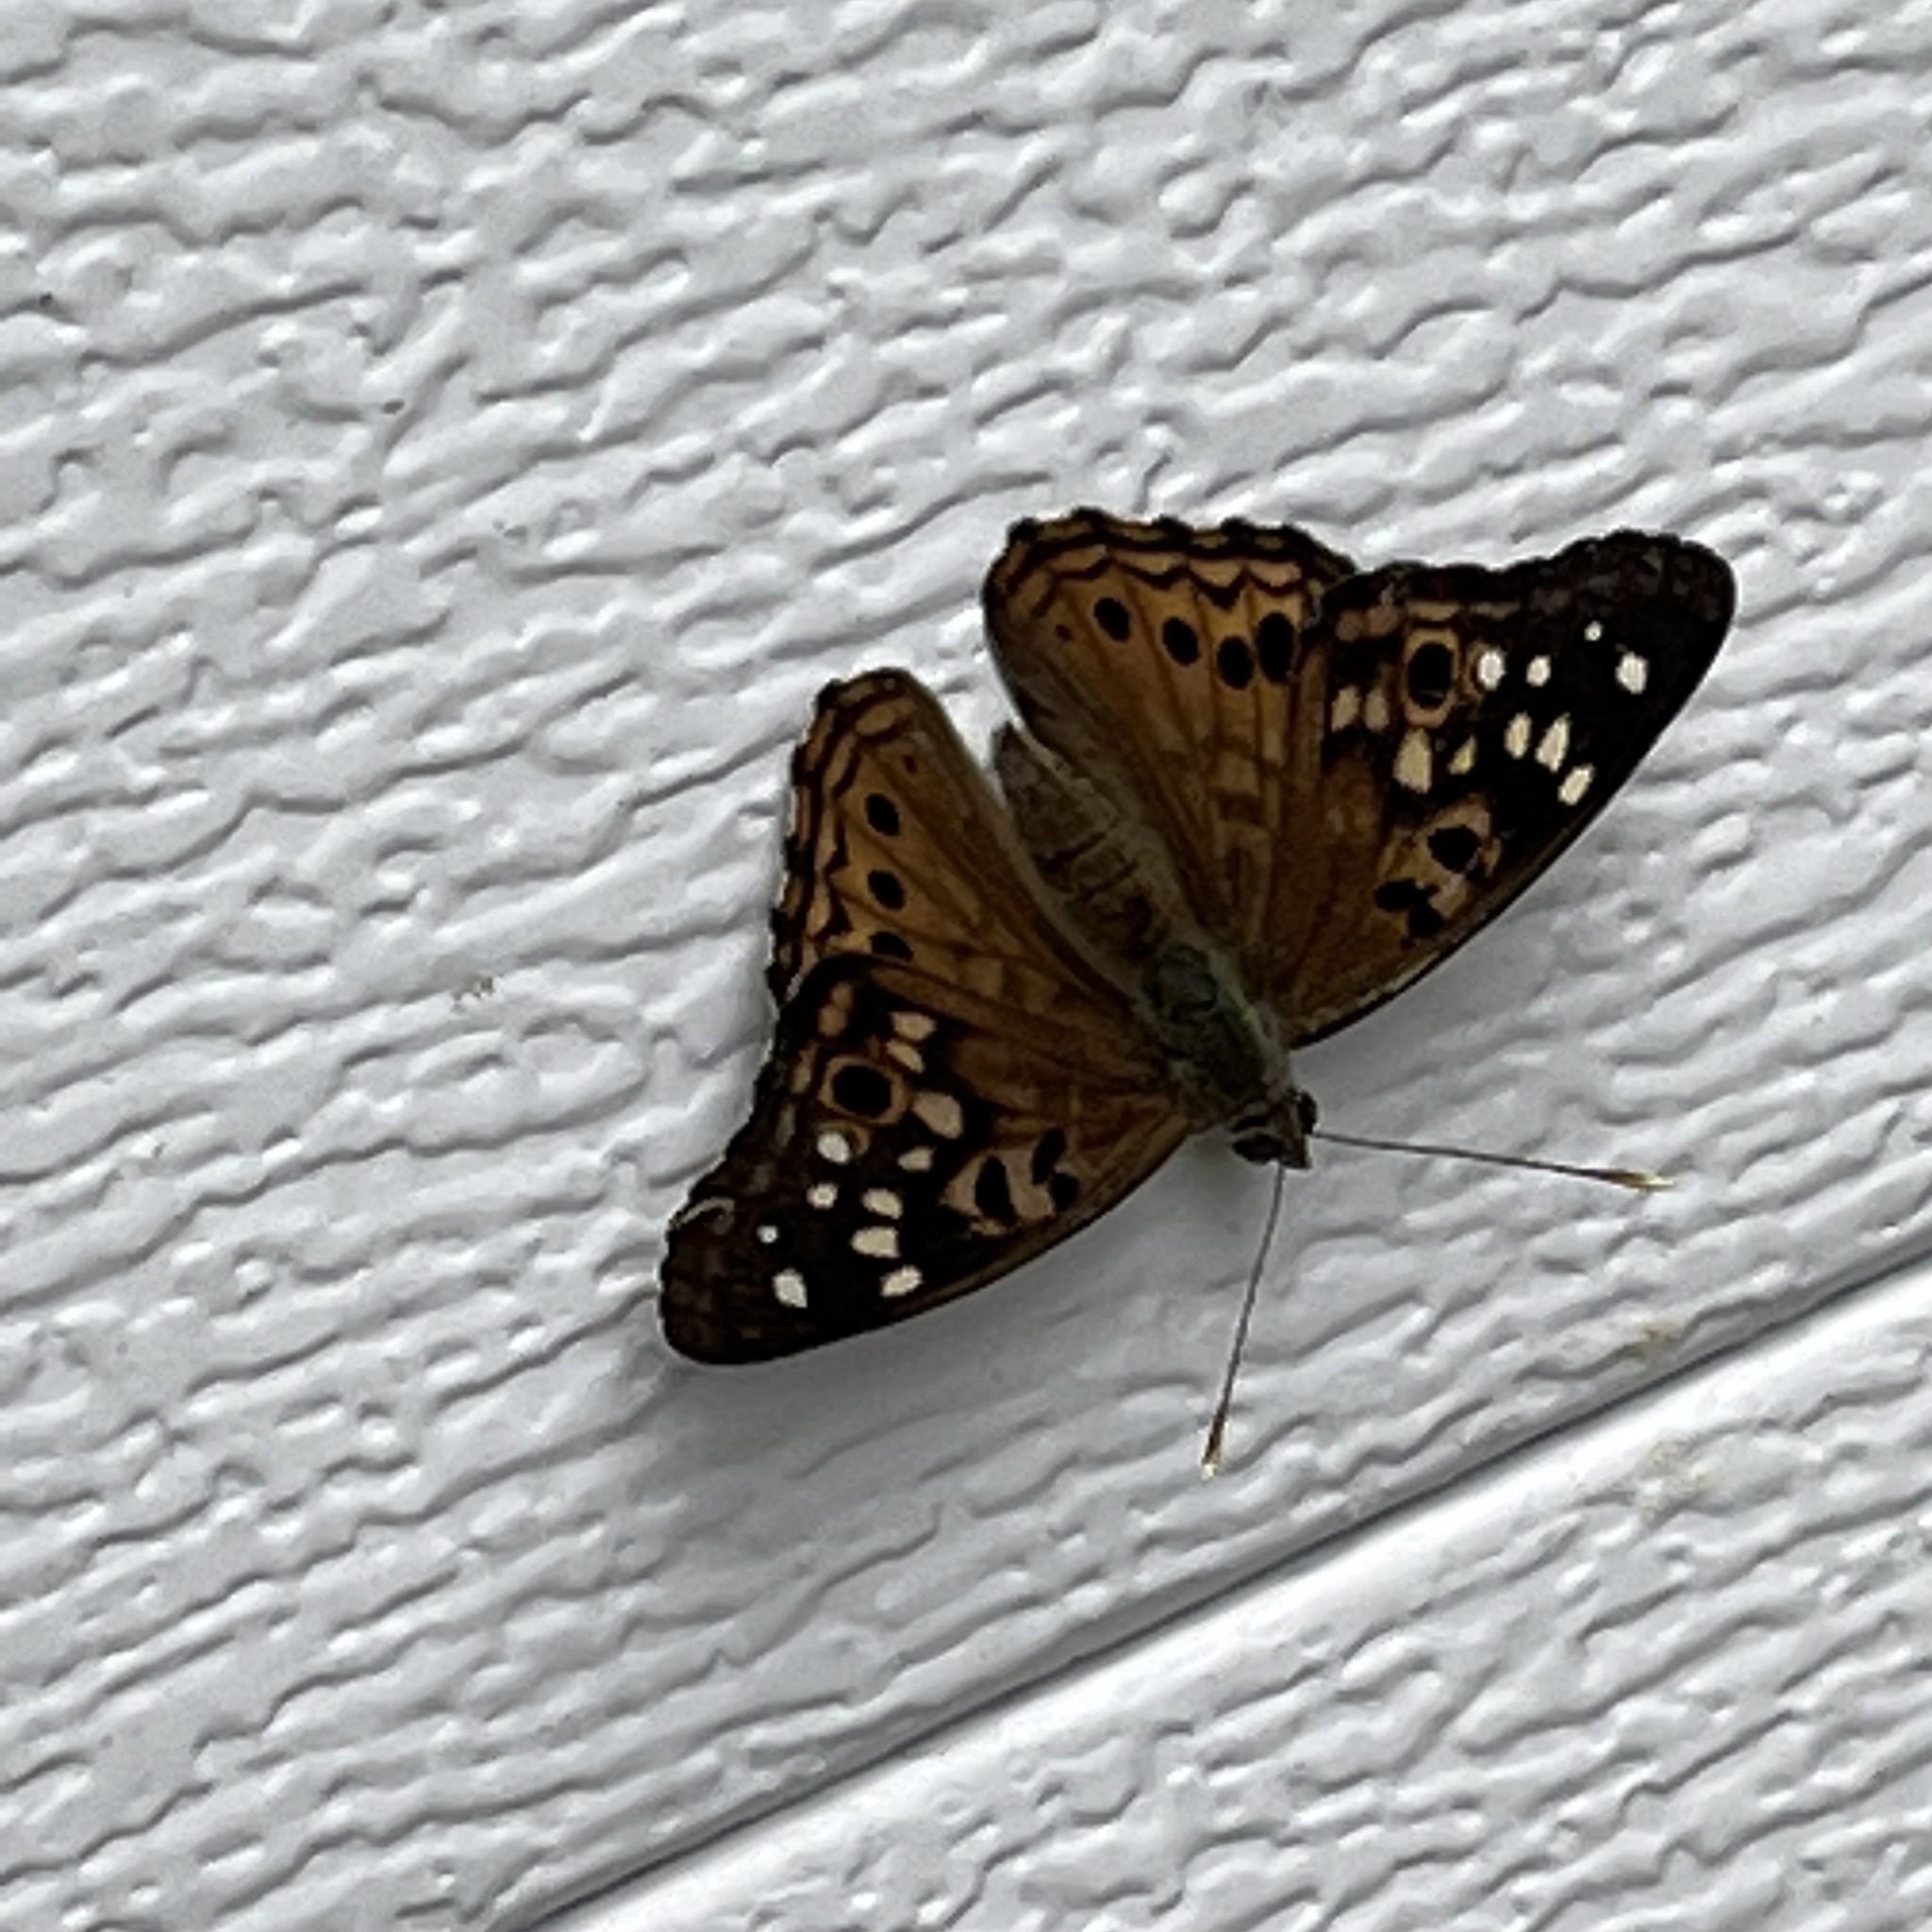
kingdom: Animalia
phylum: Arthropoda
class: Insecta
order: Lepidoptera
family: Nymphalidae
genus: Asterocampa
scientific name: Asterocampa celtis
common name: Hackberry emperor
